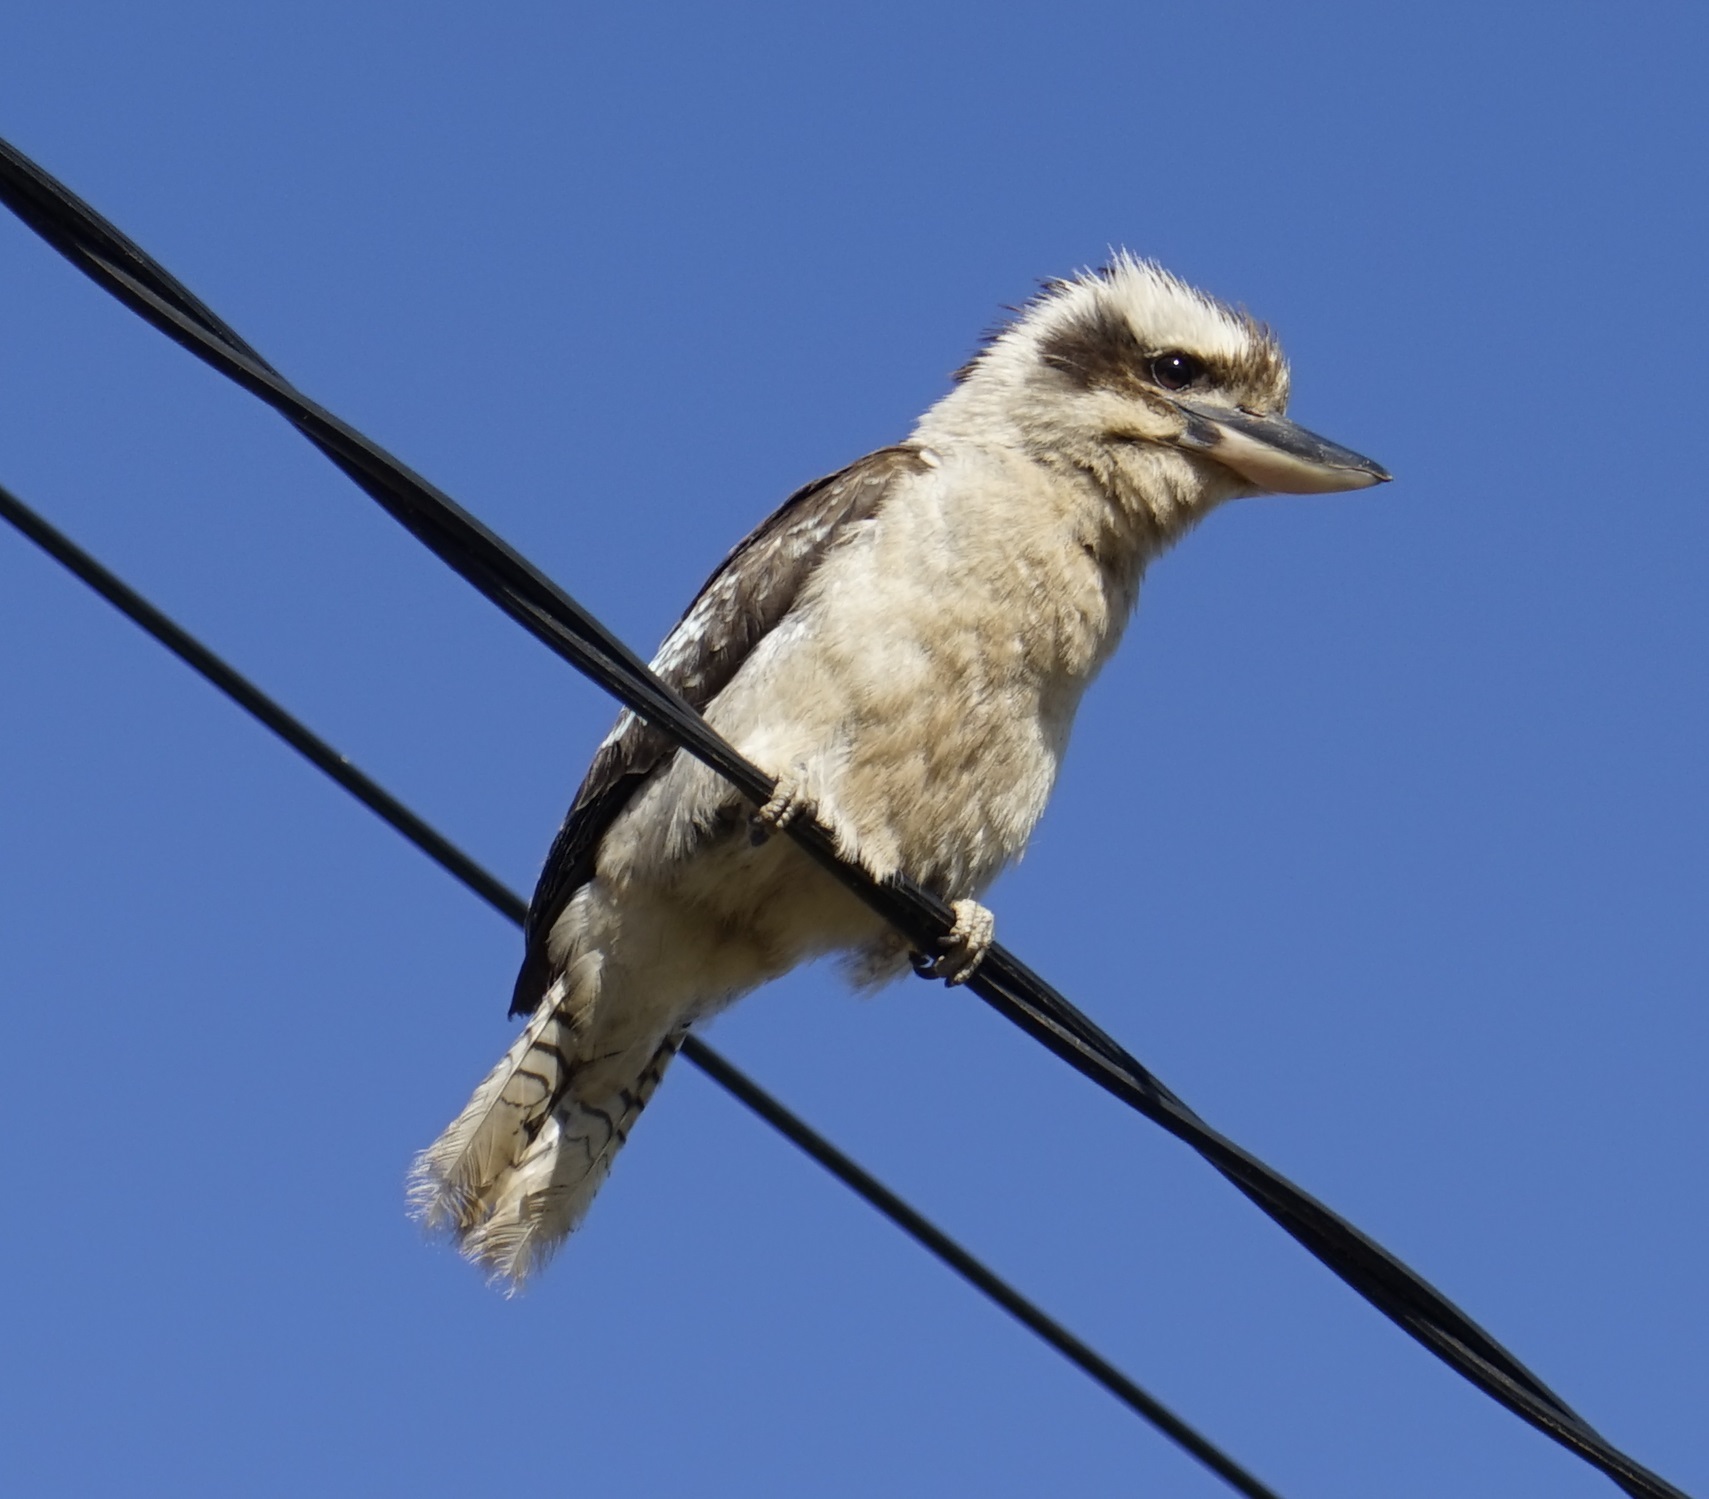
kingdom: Animalia
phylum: Chordata
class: Aves
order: Coraciiformes
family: Alcedinidae
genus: Dacelo
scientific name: Dacelo novaeguineae
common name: Laughing kookaburra
